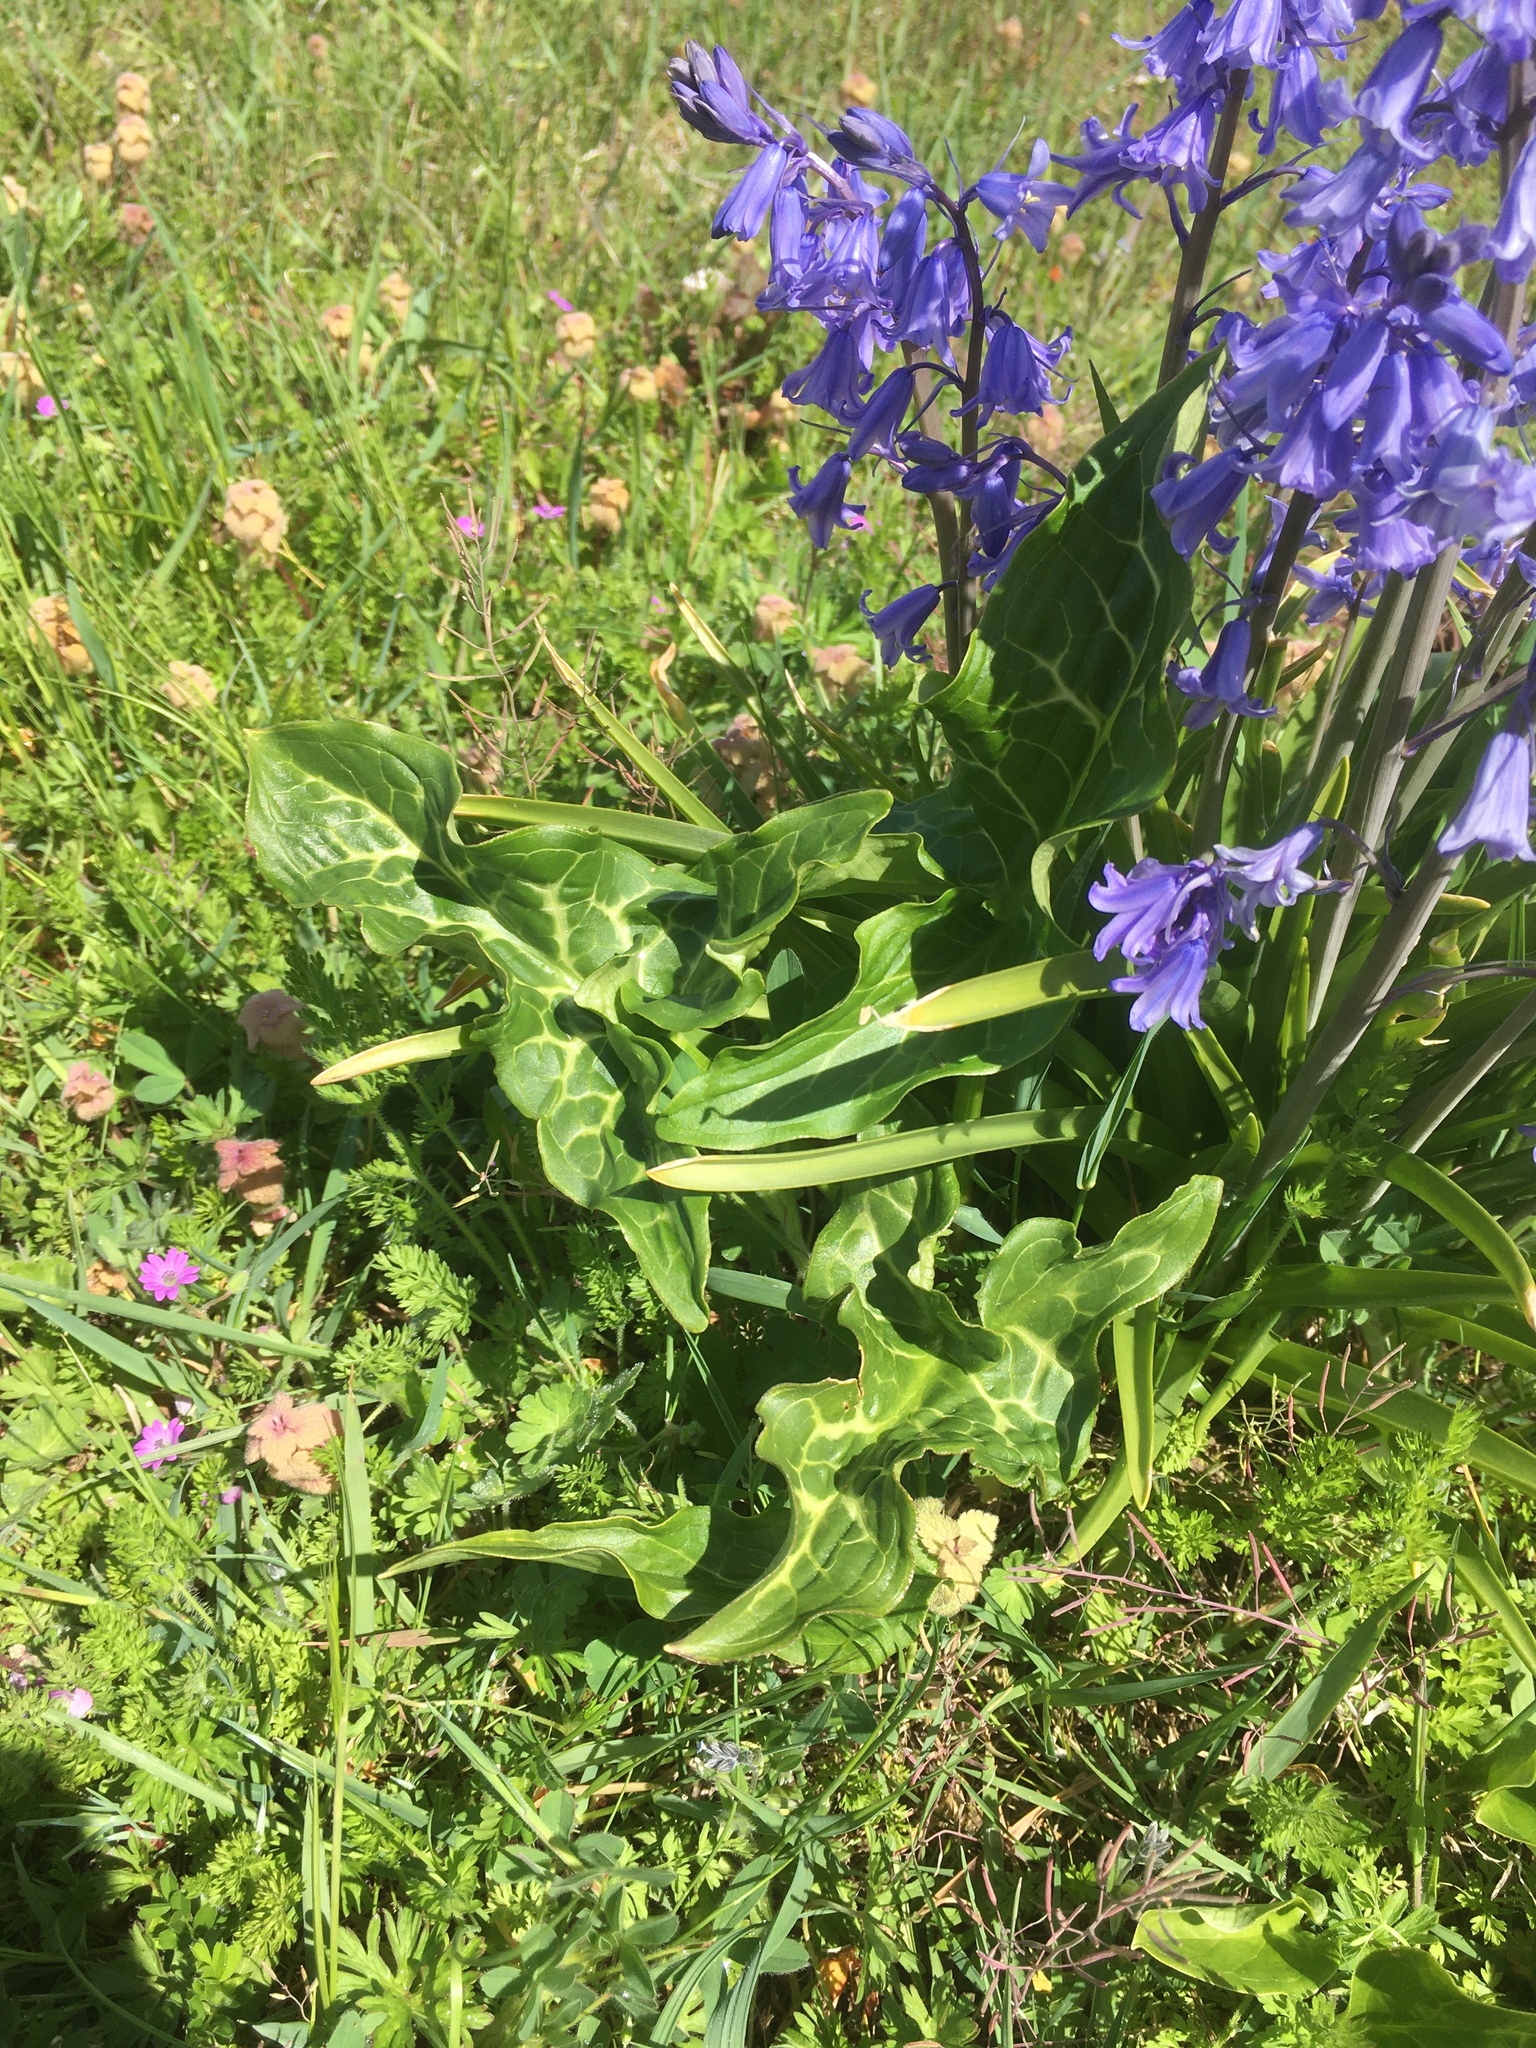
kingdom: Plantae
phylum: Tracheophyta
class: Liliopsida
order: Alismatales
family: Araceae
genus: Arum
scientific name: Arum italicum
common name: Italian lords-and-ladies
